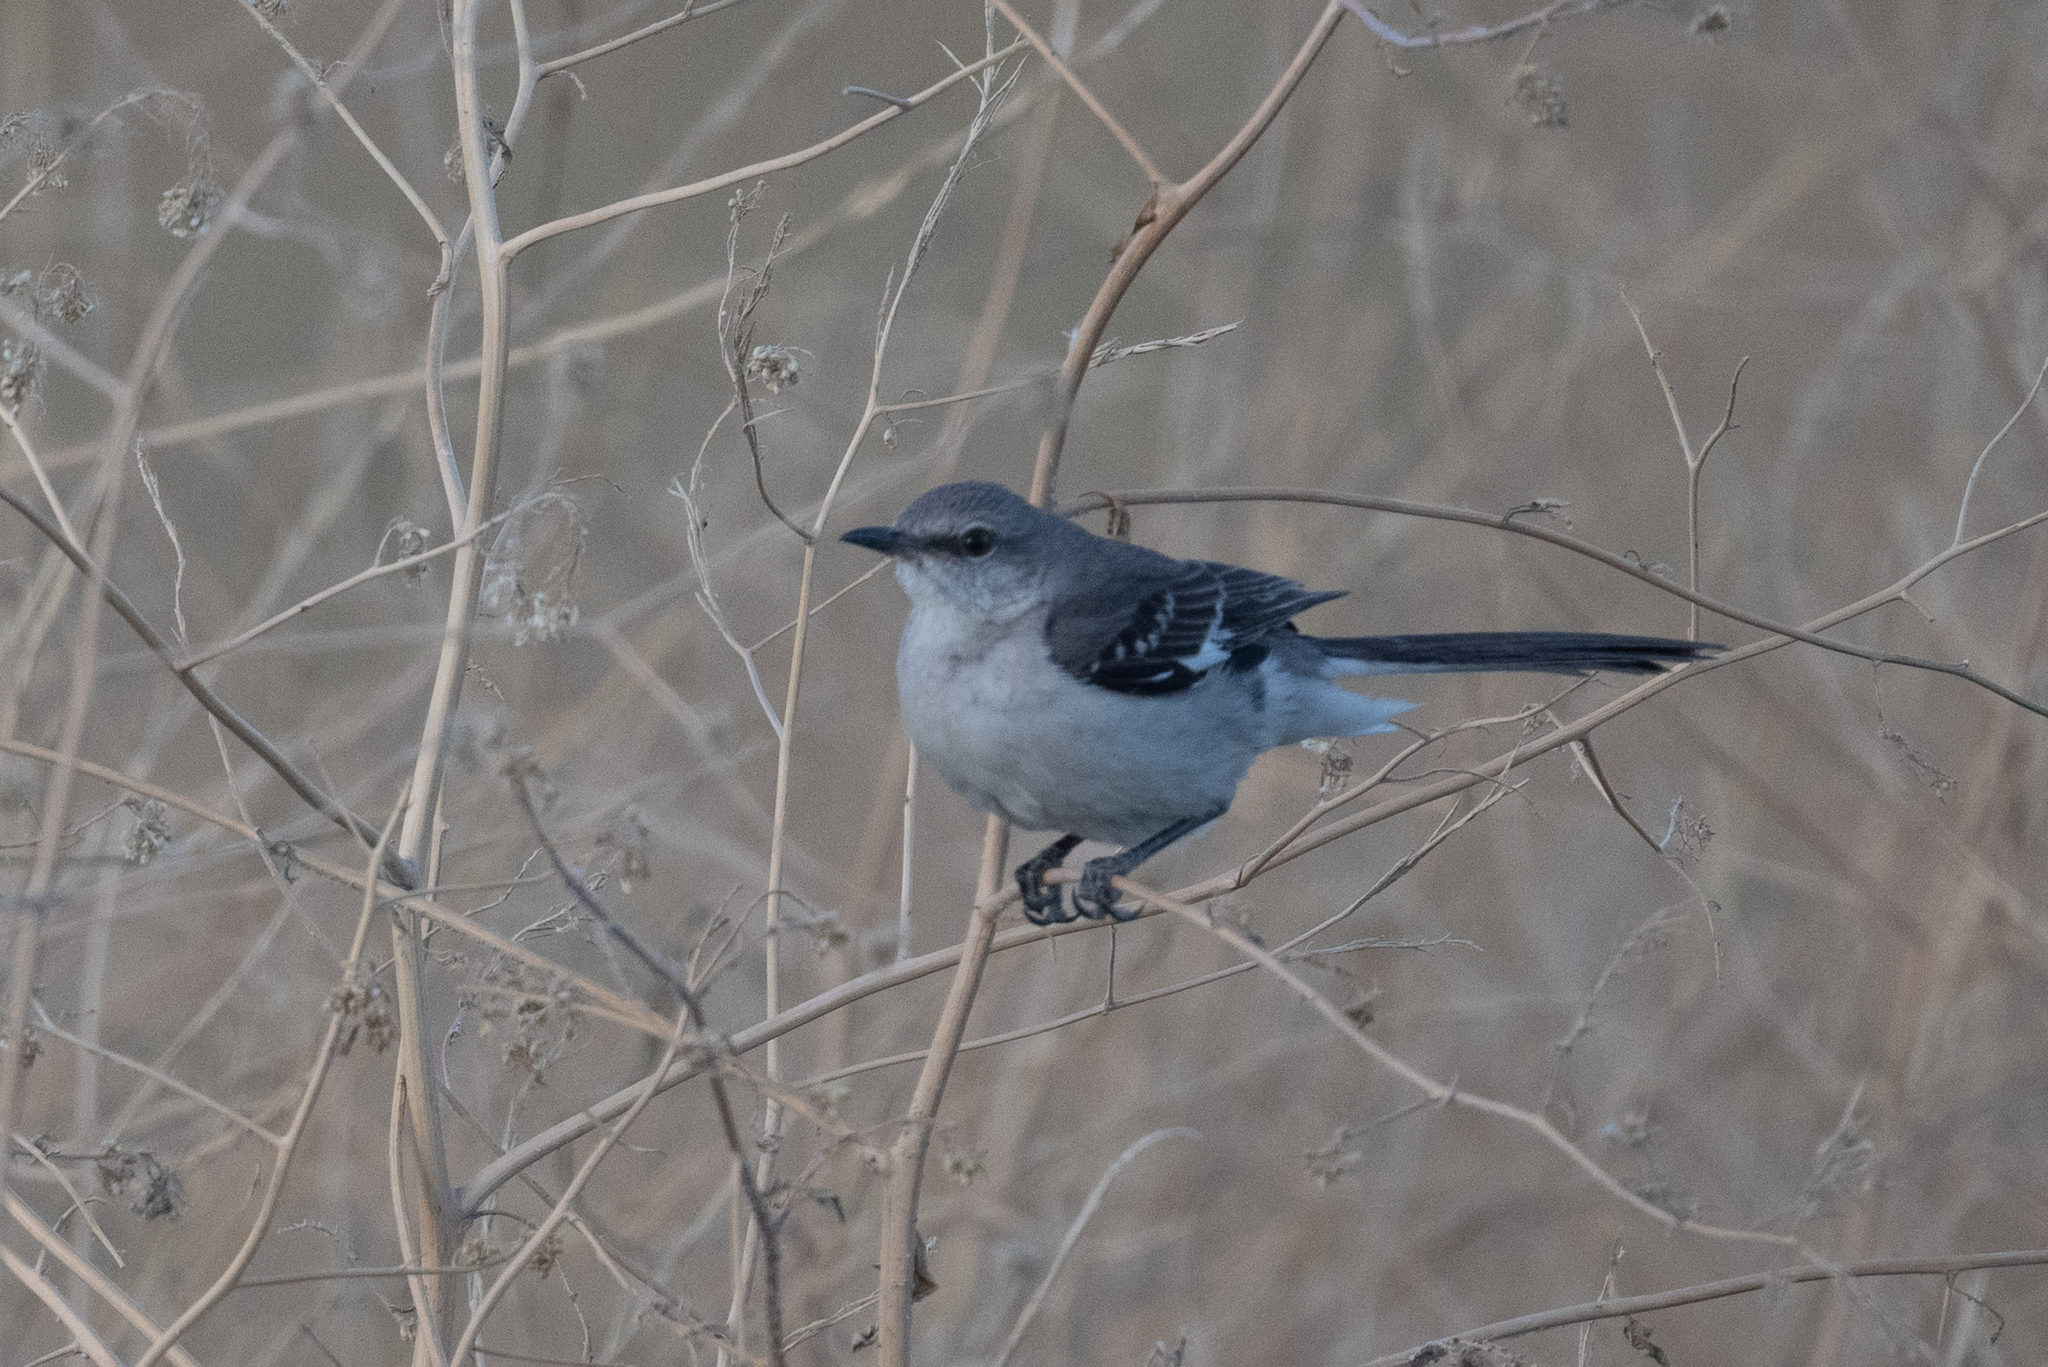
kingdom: Animalia
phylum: Chordata
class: Aves
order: Passeriformes
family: Mimidae
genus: Mimus
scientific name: Mimus polyglottos
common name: Northern mockingbird
